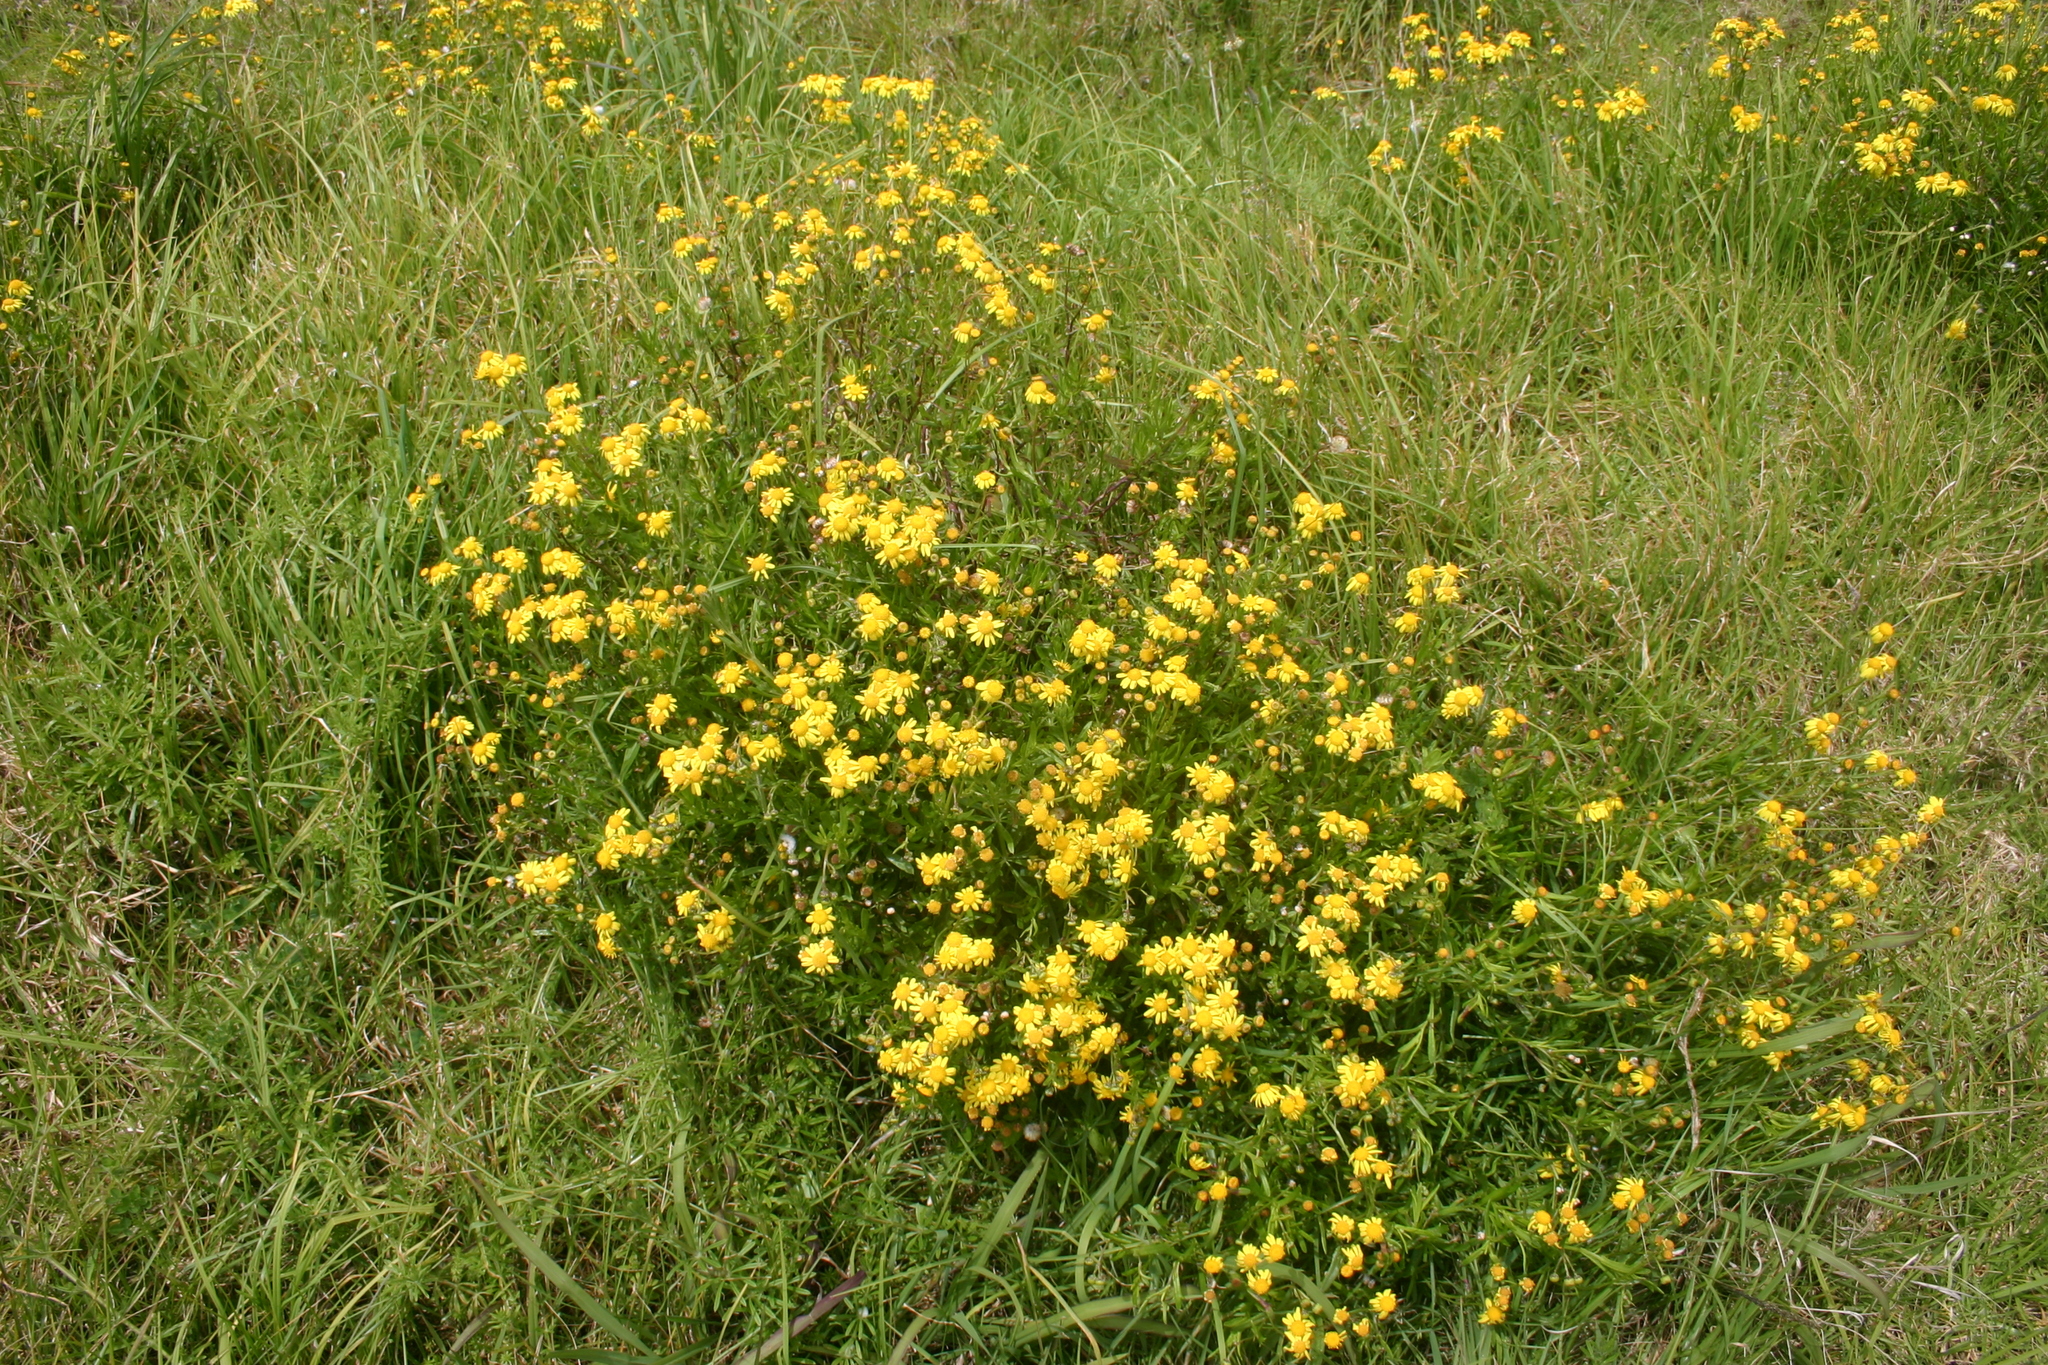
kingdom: Plantae
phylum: Tracheophyta
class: Magnoliopsida
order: Asterales
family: Asteraceae
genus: Senecio
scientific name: Senecio skirrhodon
